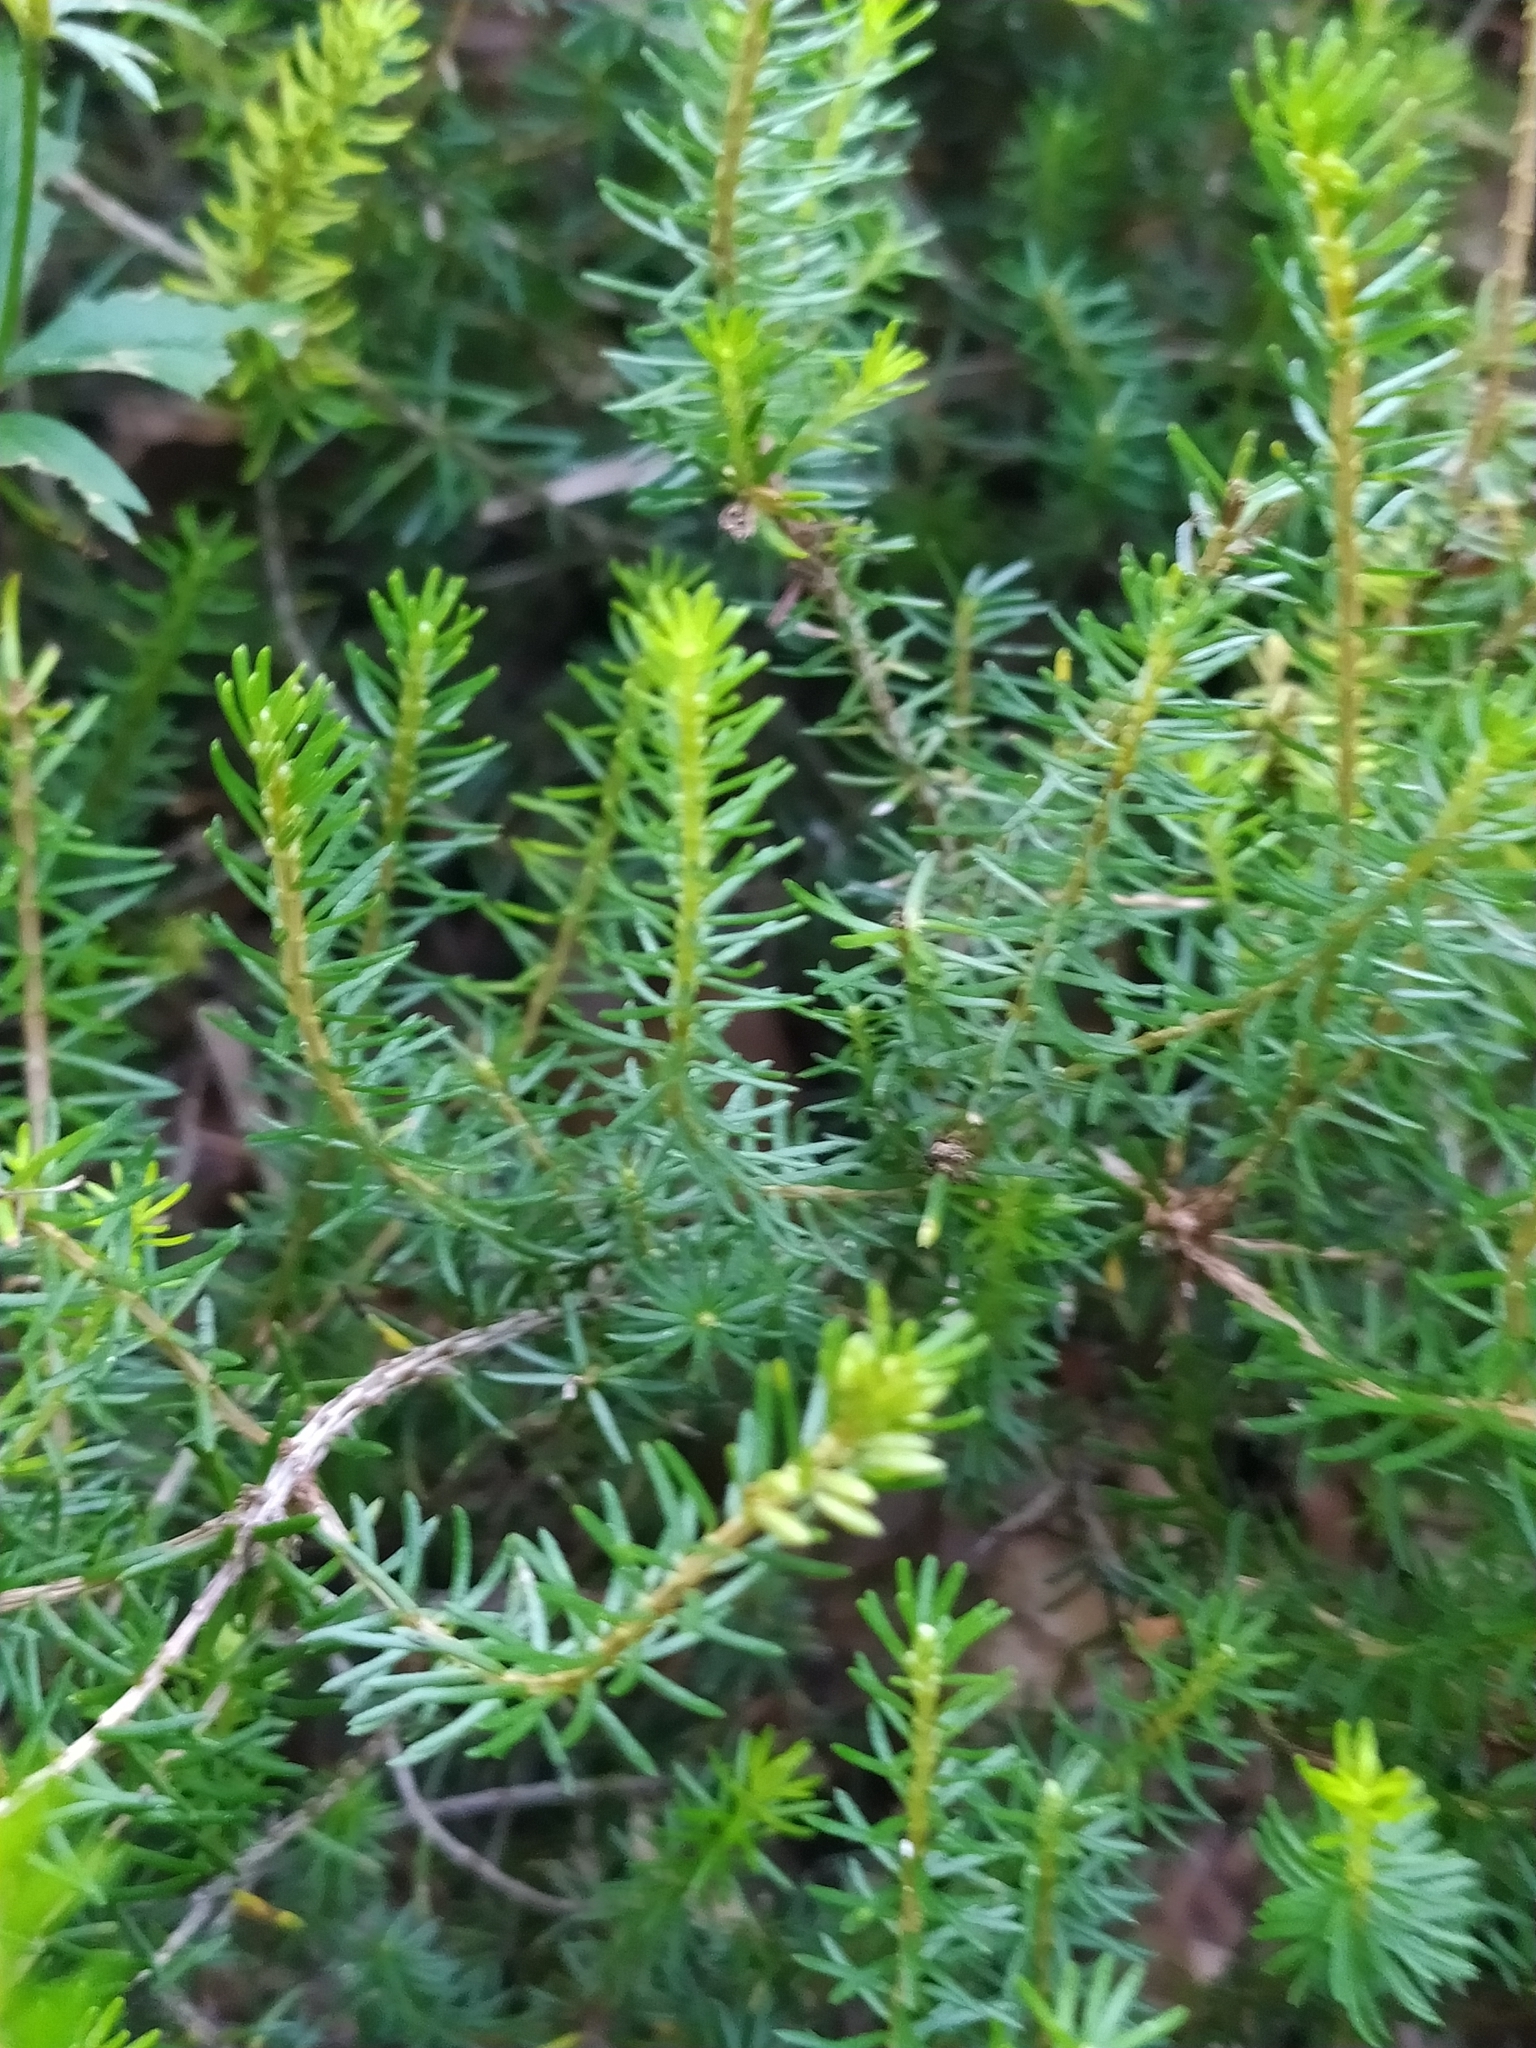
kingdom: Plantae
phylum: Tracheophyta
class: Magnoliopsida
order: Ericales
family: Ericaceae
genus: Erica
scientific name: Erica carnea
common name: Winter heath
